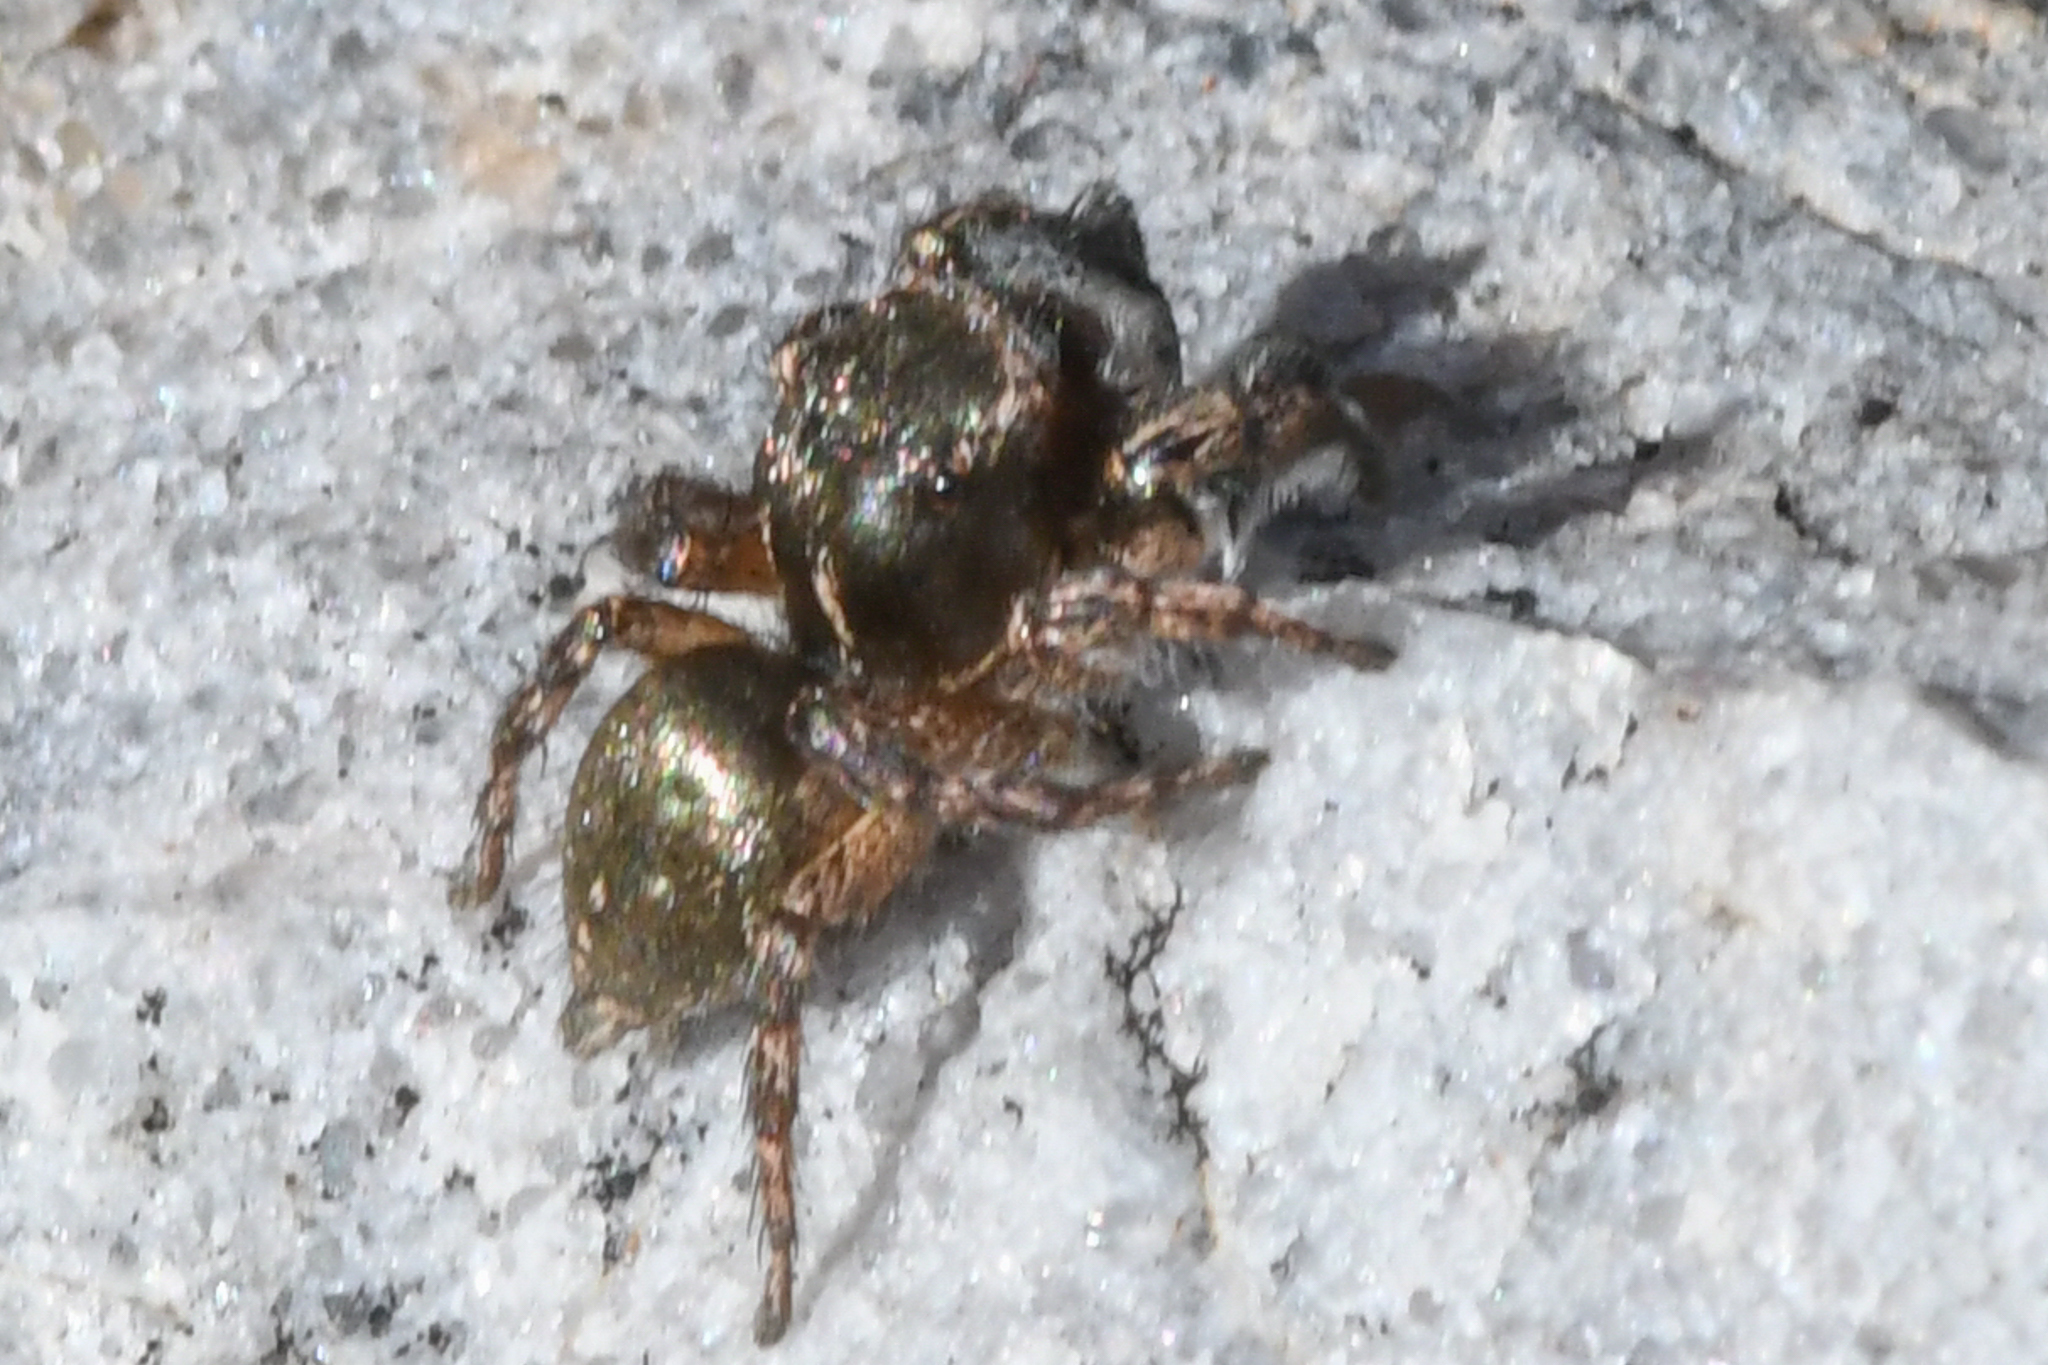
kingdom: Animalia
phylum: Arthropoda
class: Arachnida
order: Araneae
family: Salticidae
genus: Habronattus
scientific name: Habronattus hirsutus
